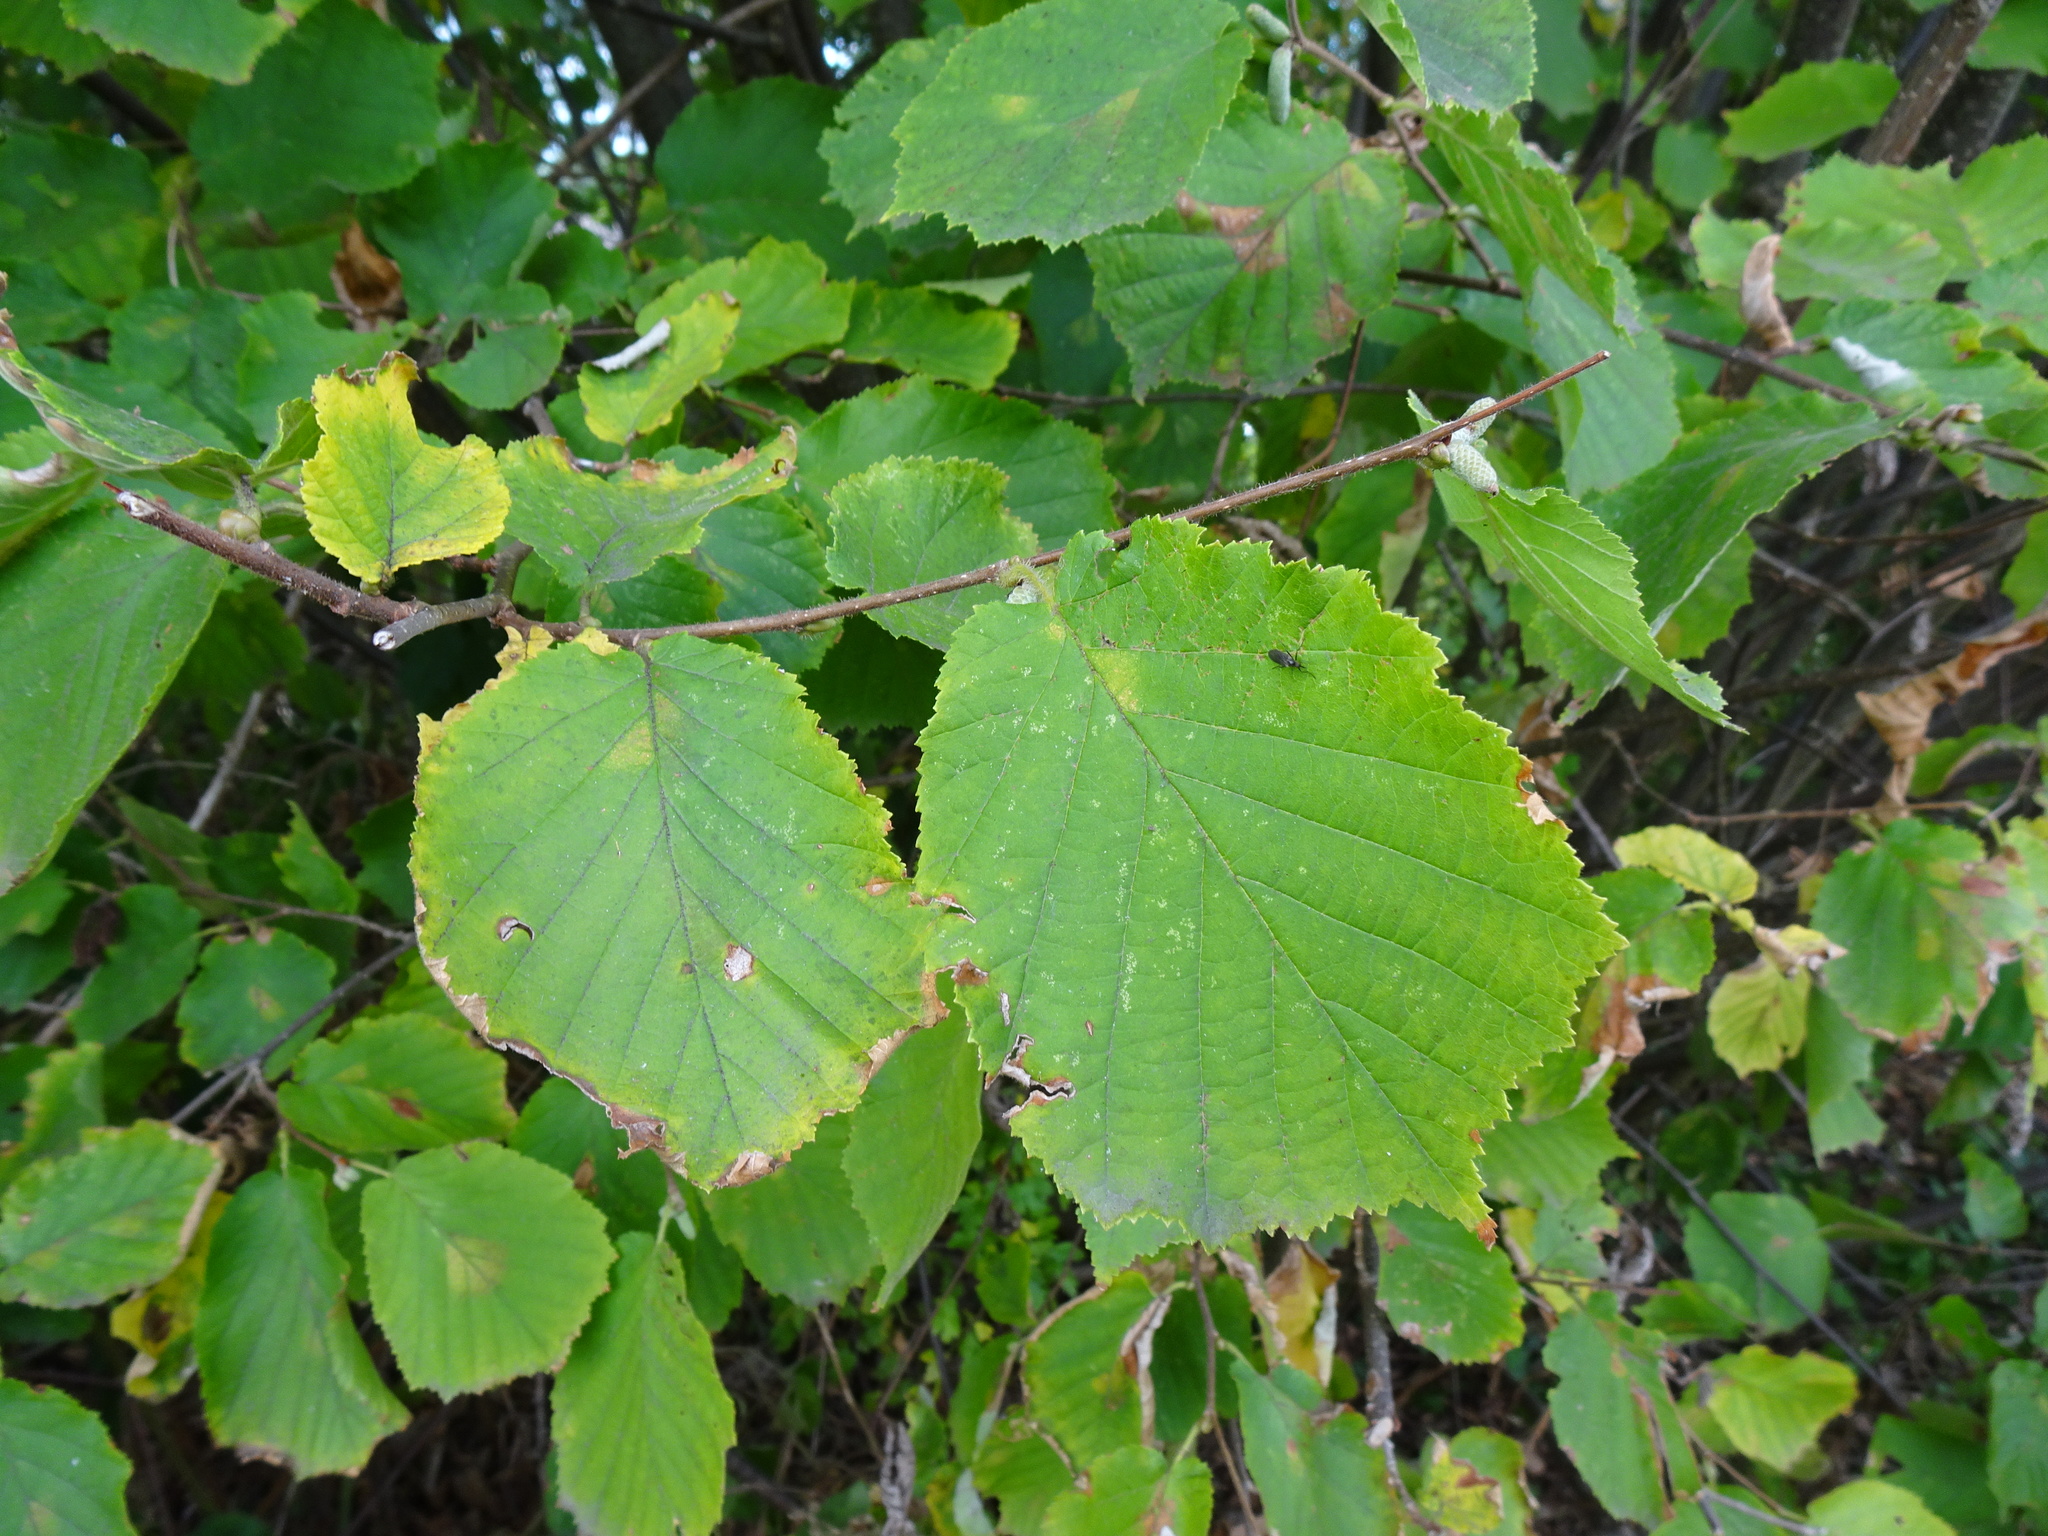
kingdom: Plantae
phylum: Tracheophyta
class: Magnoliopsida
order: Fagales
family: Betulaceae
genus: Corylus
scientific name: Corylus avellana
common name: European hazel
